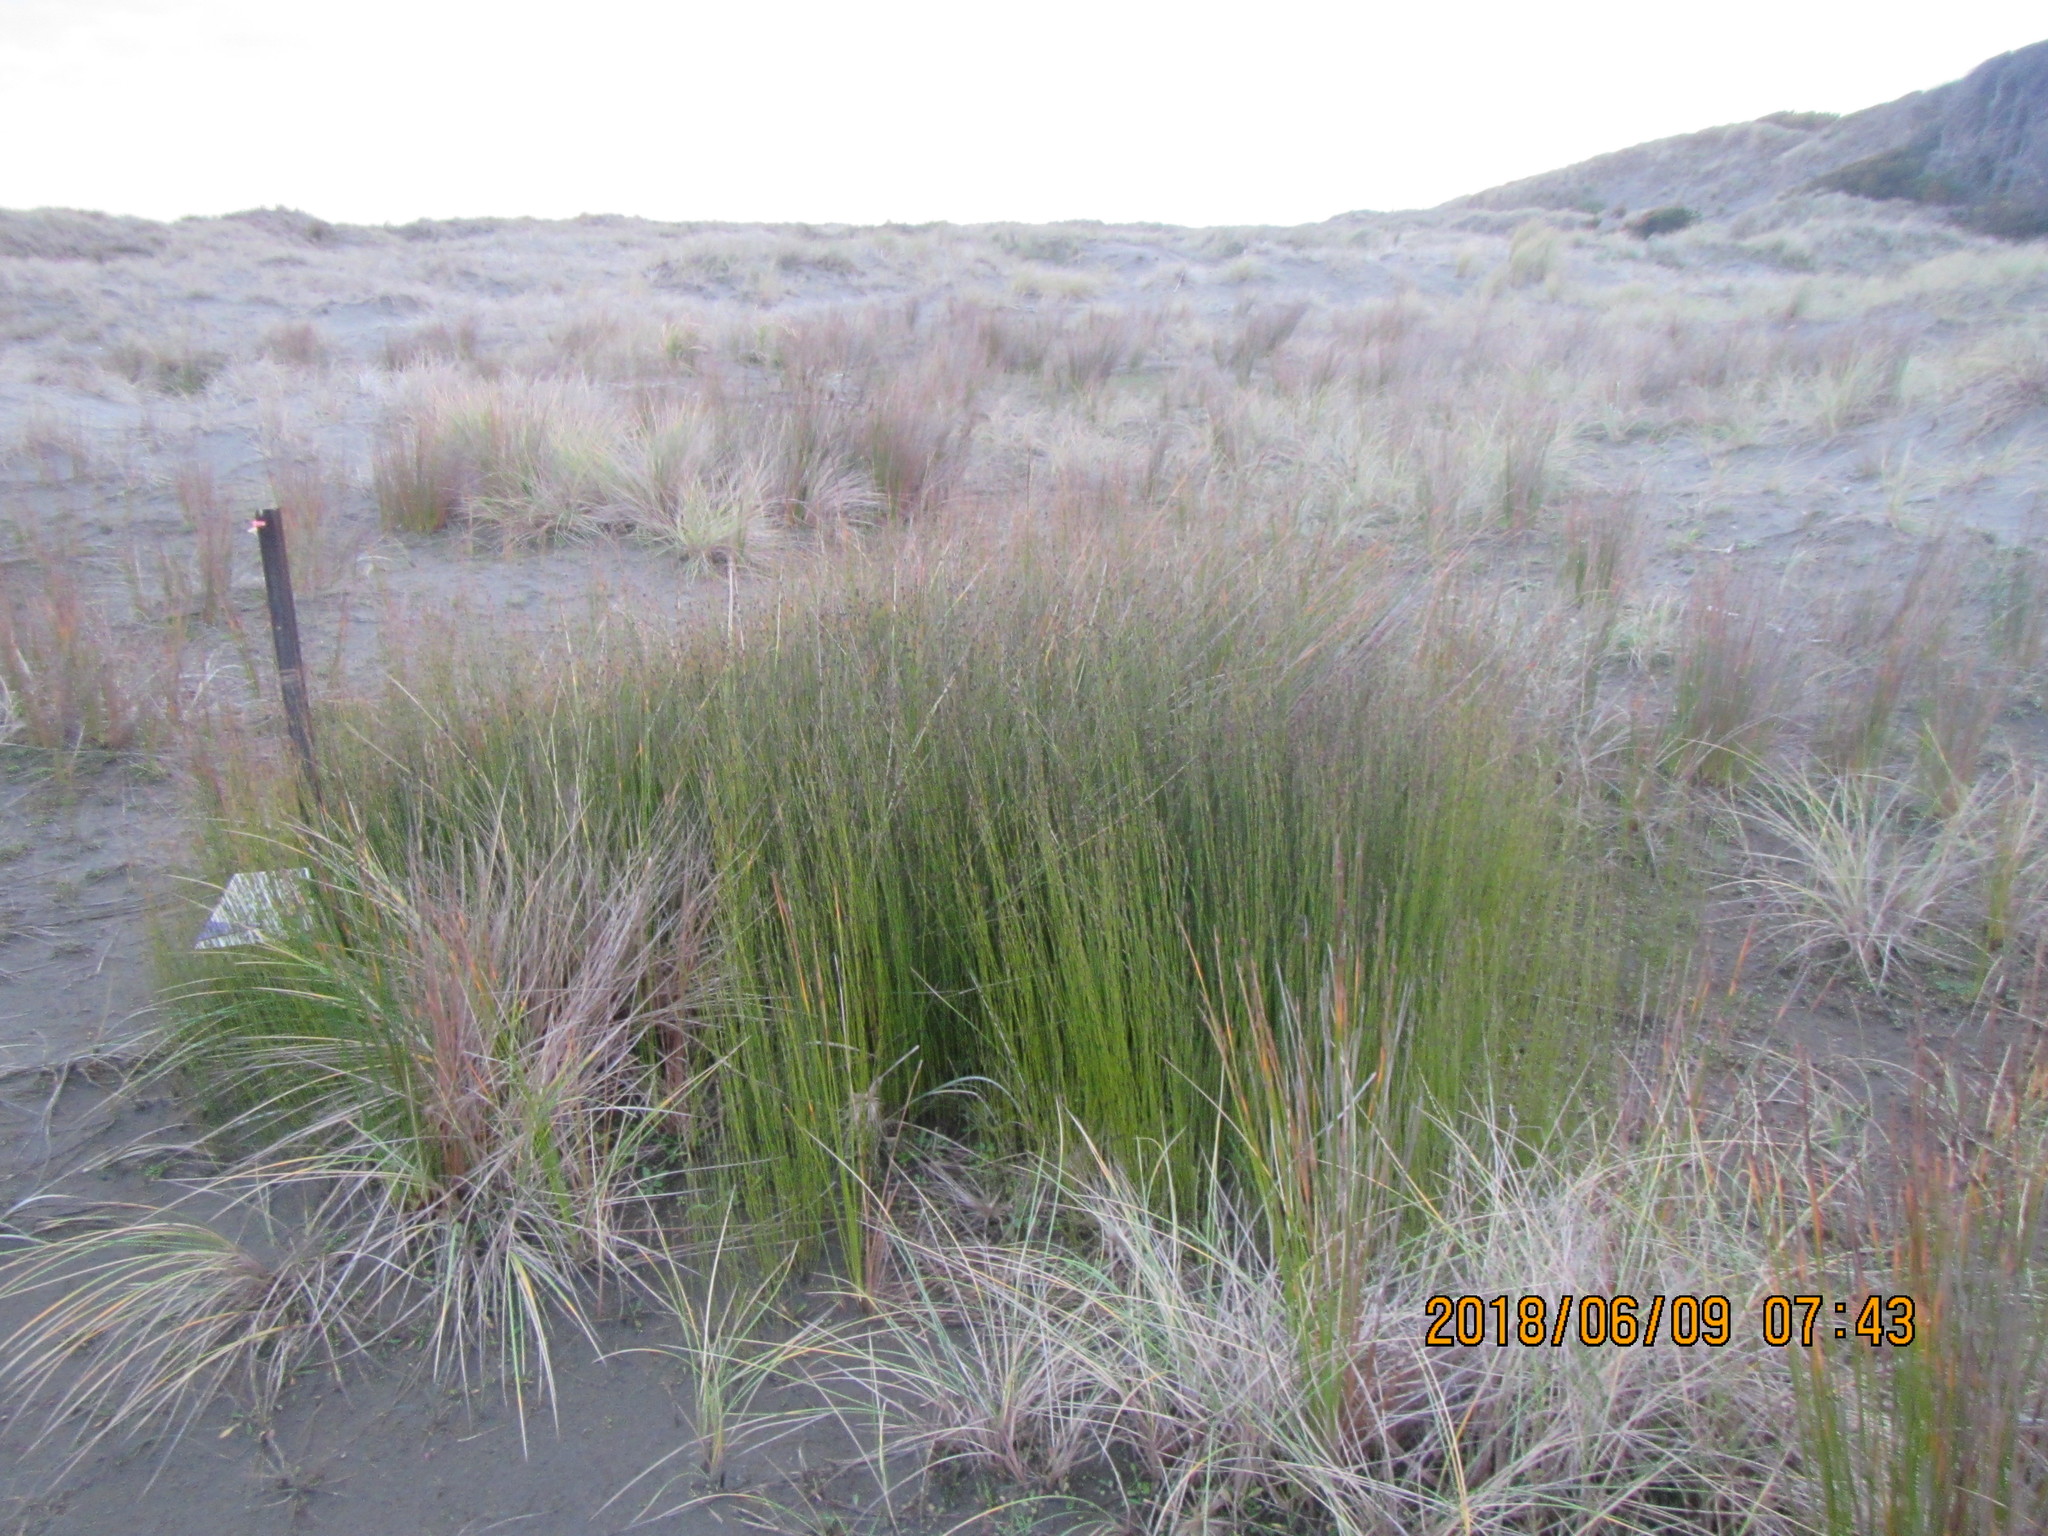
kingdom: Plantae
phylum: Tracheophyta
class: Liliopsida
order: Poales
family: Restionaceae
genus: Apodasmia
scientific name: Apodasmia similis
